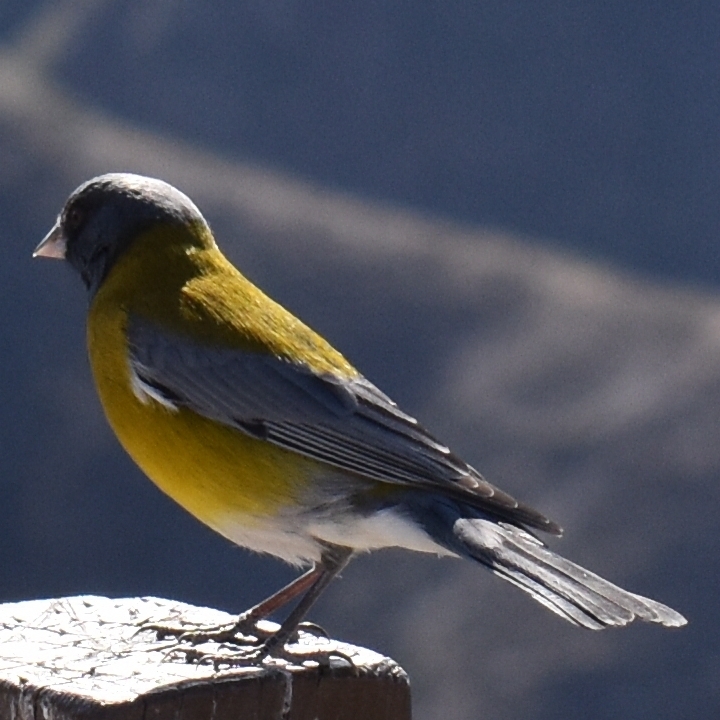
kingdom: Animalia
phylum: Chordata
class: Aves
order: Passeriformes
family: Thraupidae
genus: Phrygilus
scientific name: Phrygilus gayi
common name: Grey-hooded sierra finch
